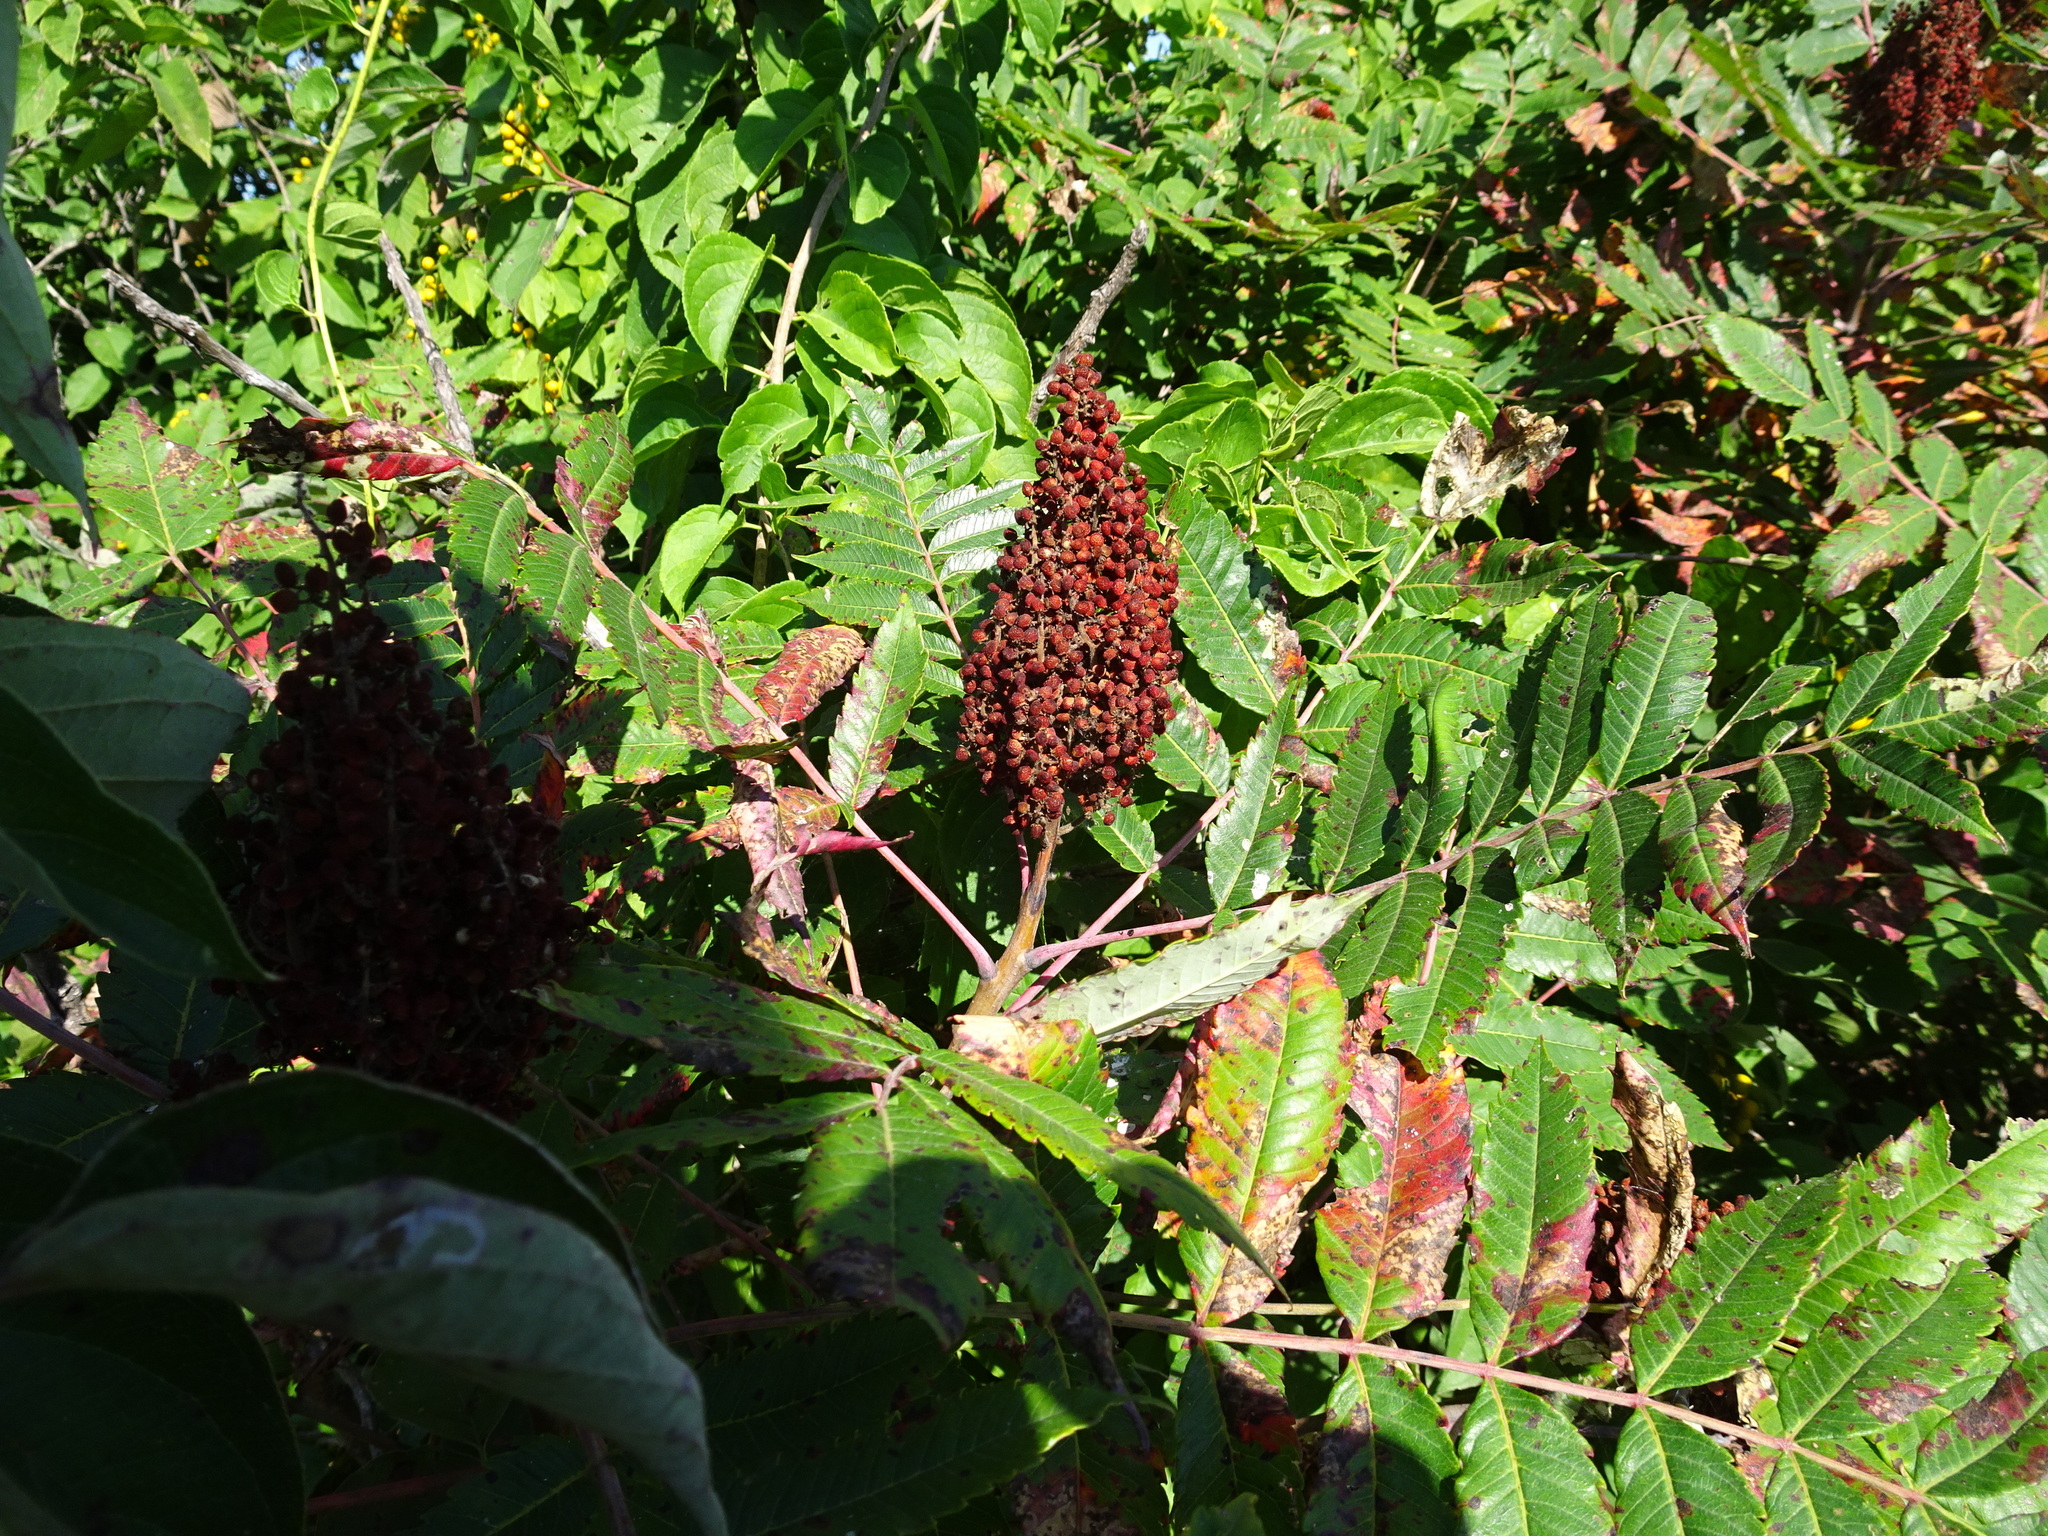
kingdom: Plantae
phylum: Tracheophyta
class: Magnoliopsida
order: Sapindales
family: Anacardiaceae
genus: Rhus
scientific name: Rhus glabra
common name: Scarlet sumac
